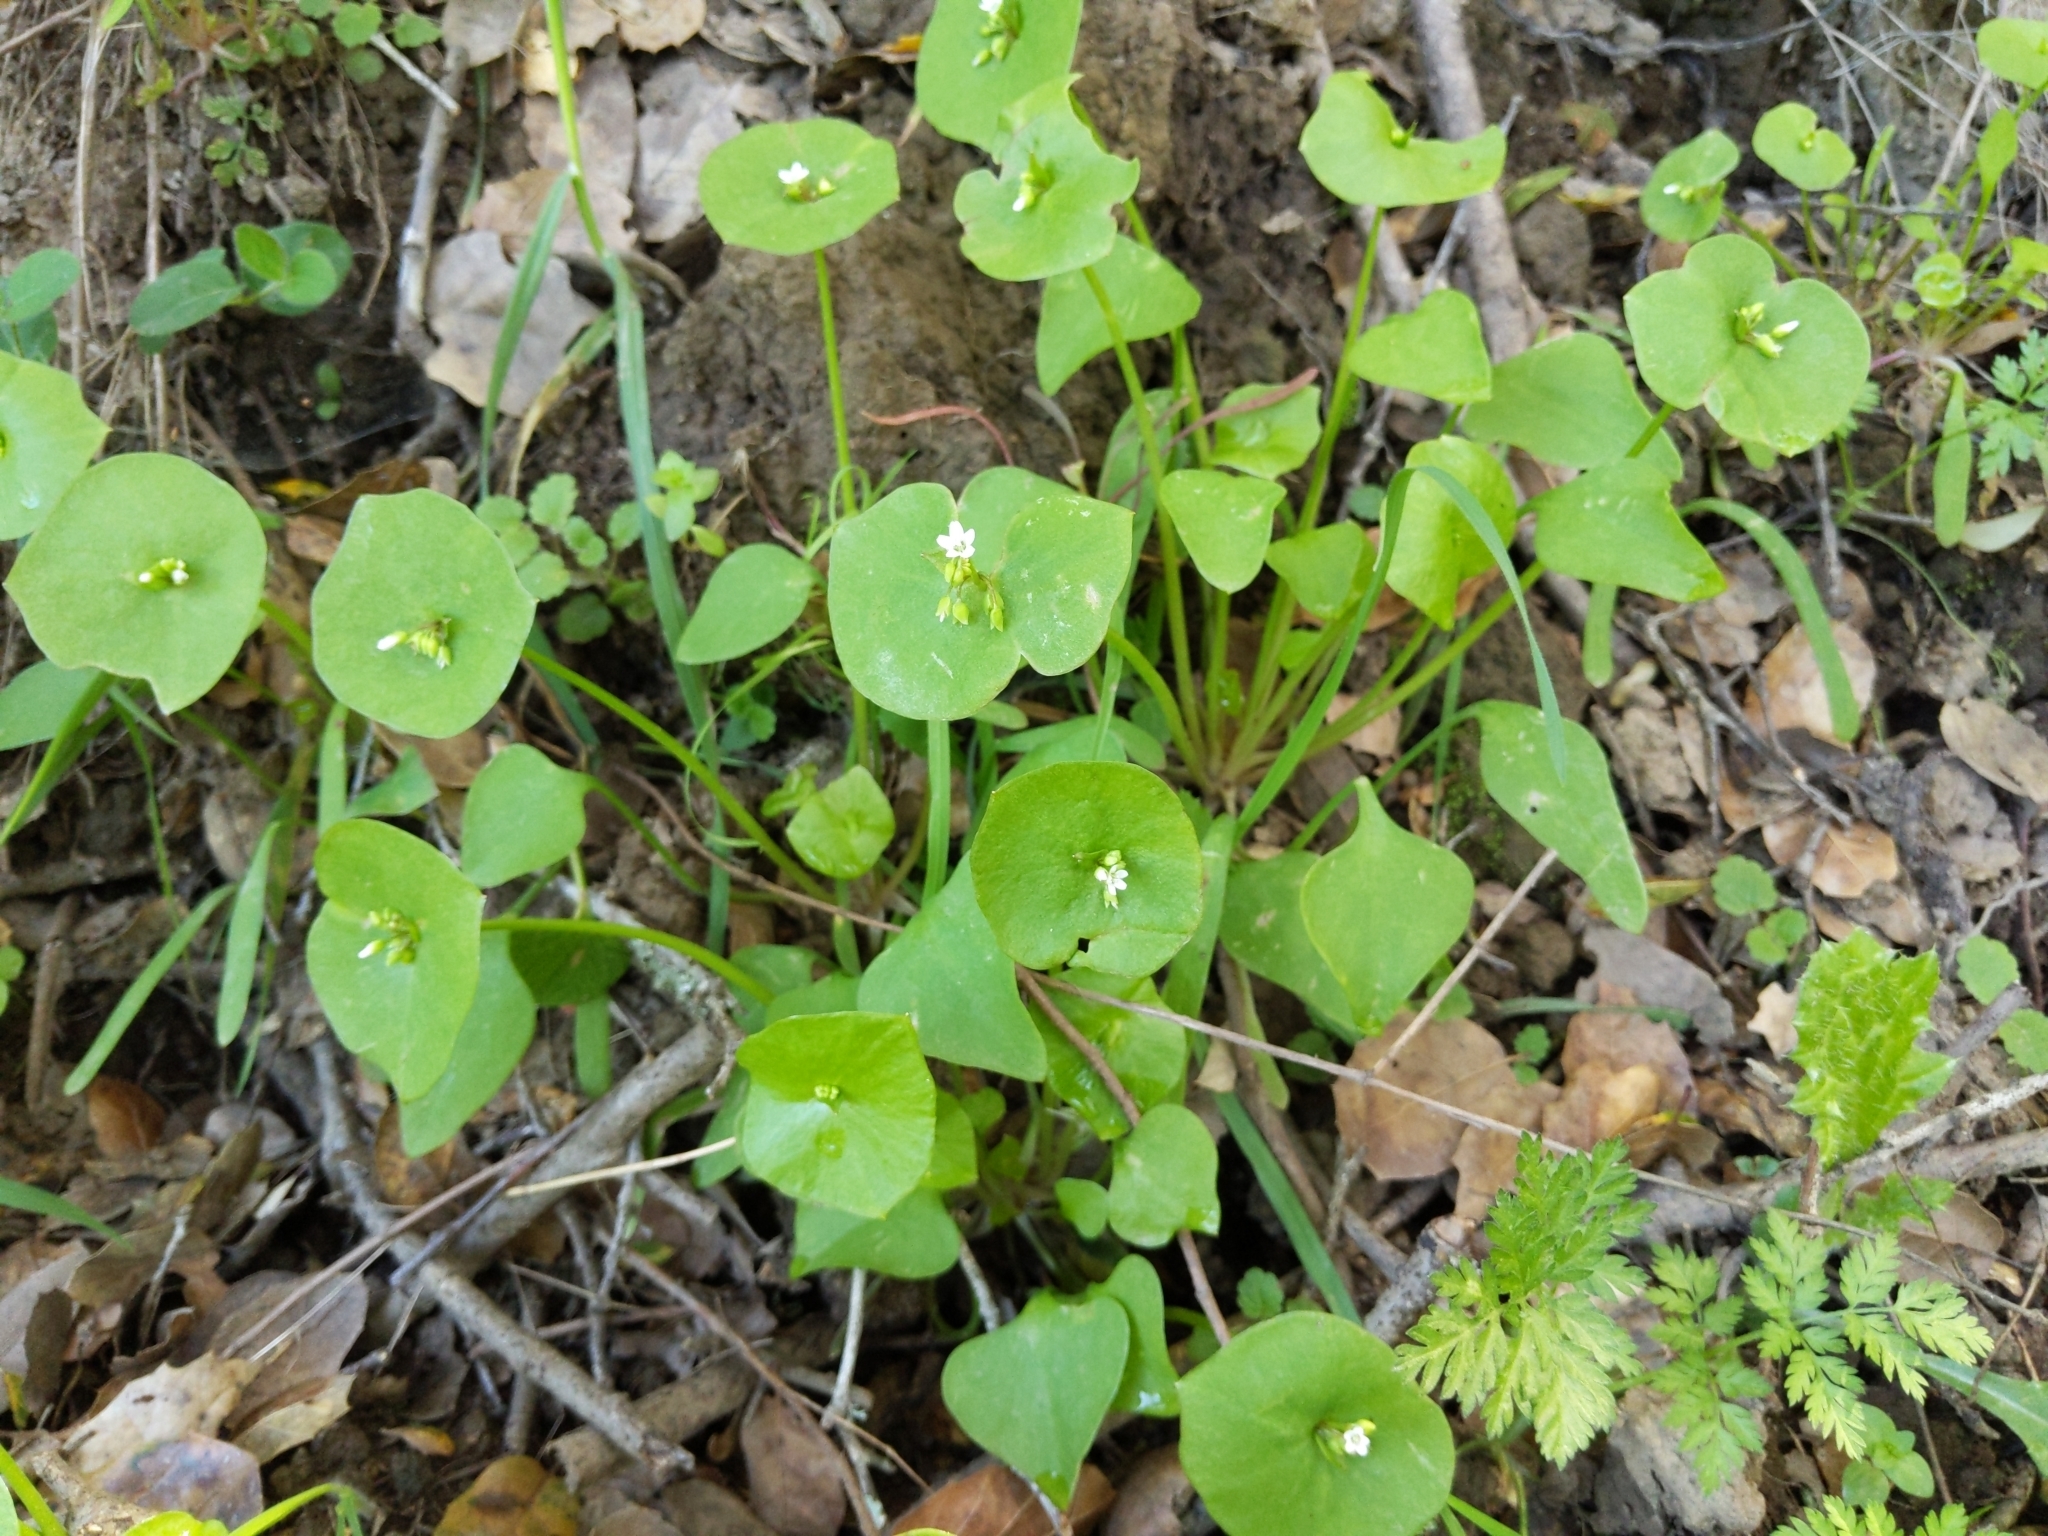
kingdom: Plantae
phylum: Tracheophyta
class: Magnoliopsida
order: Caryophyllales
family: Montiaceae
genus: Claytonia
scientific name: Claytonia perfoliata
